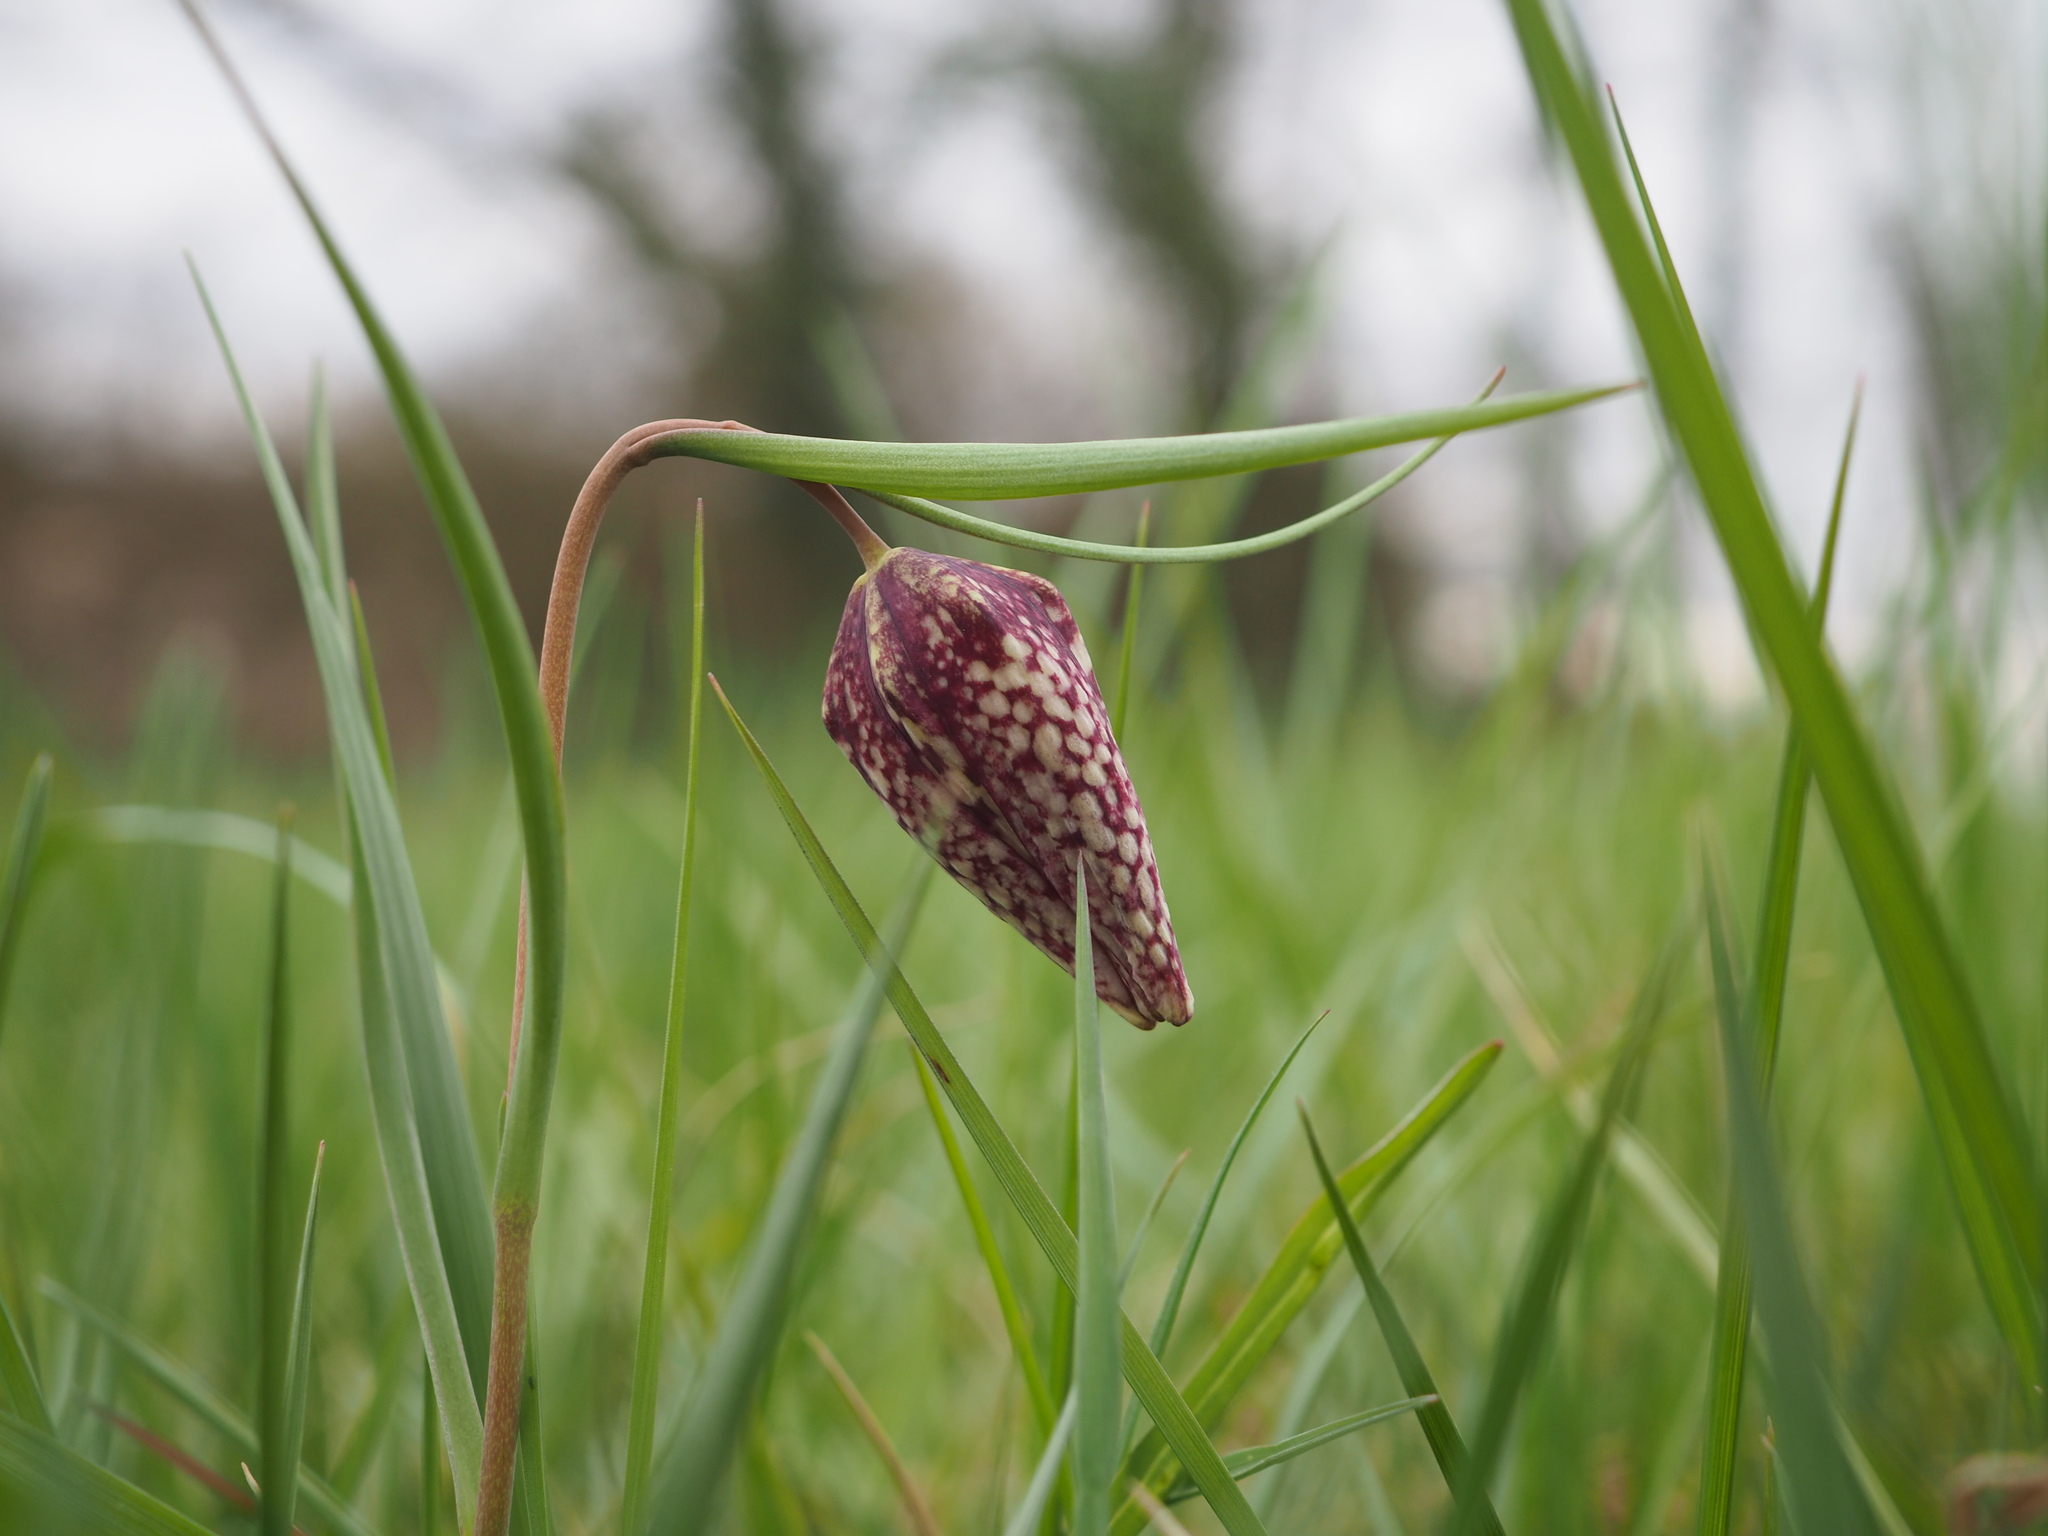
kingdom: Plantae
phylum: Tracheophyta
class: Liliopsida
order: Liliales
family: Liliaceae
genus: Fritillaria
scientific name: Fritillaria meleagris
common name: Fritillary
